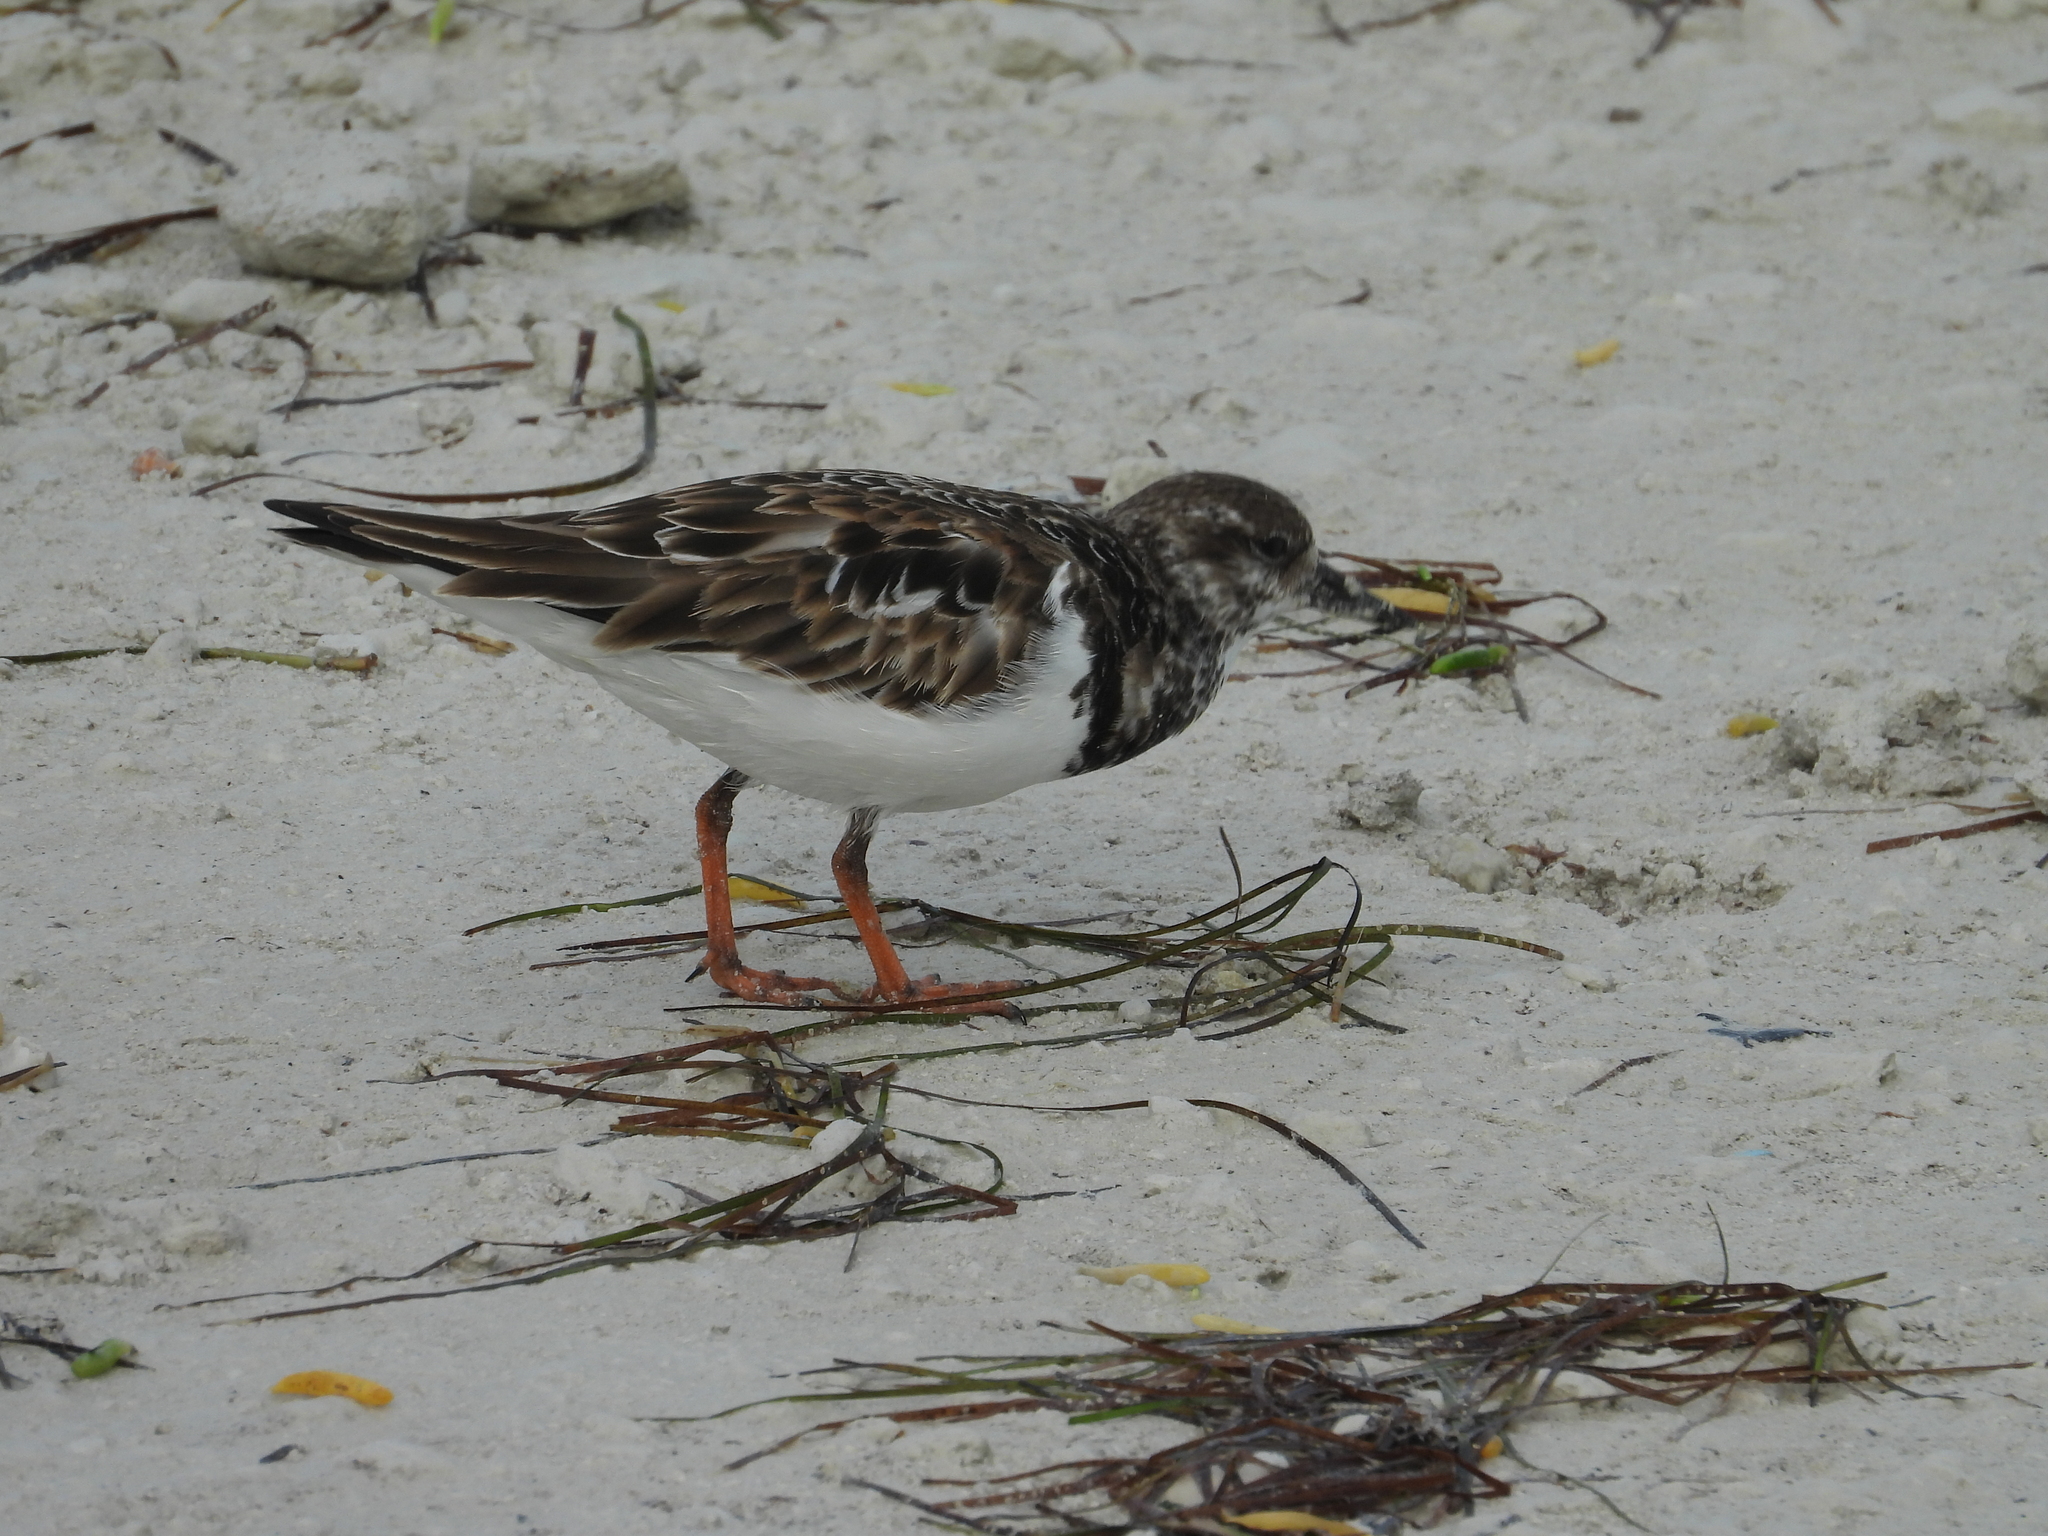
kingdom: Animalia
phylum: Chordata
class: Aves
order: Charadriiformes
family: Scolopacidae
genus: Arenaria
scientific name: Arenaria interpres
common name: Ruddy turnstone
